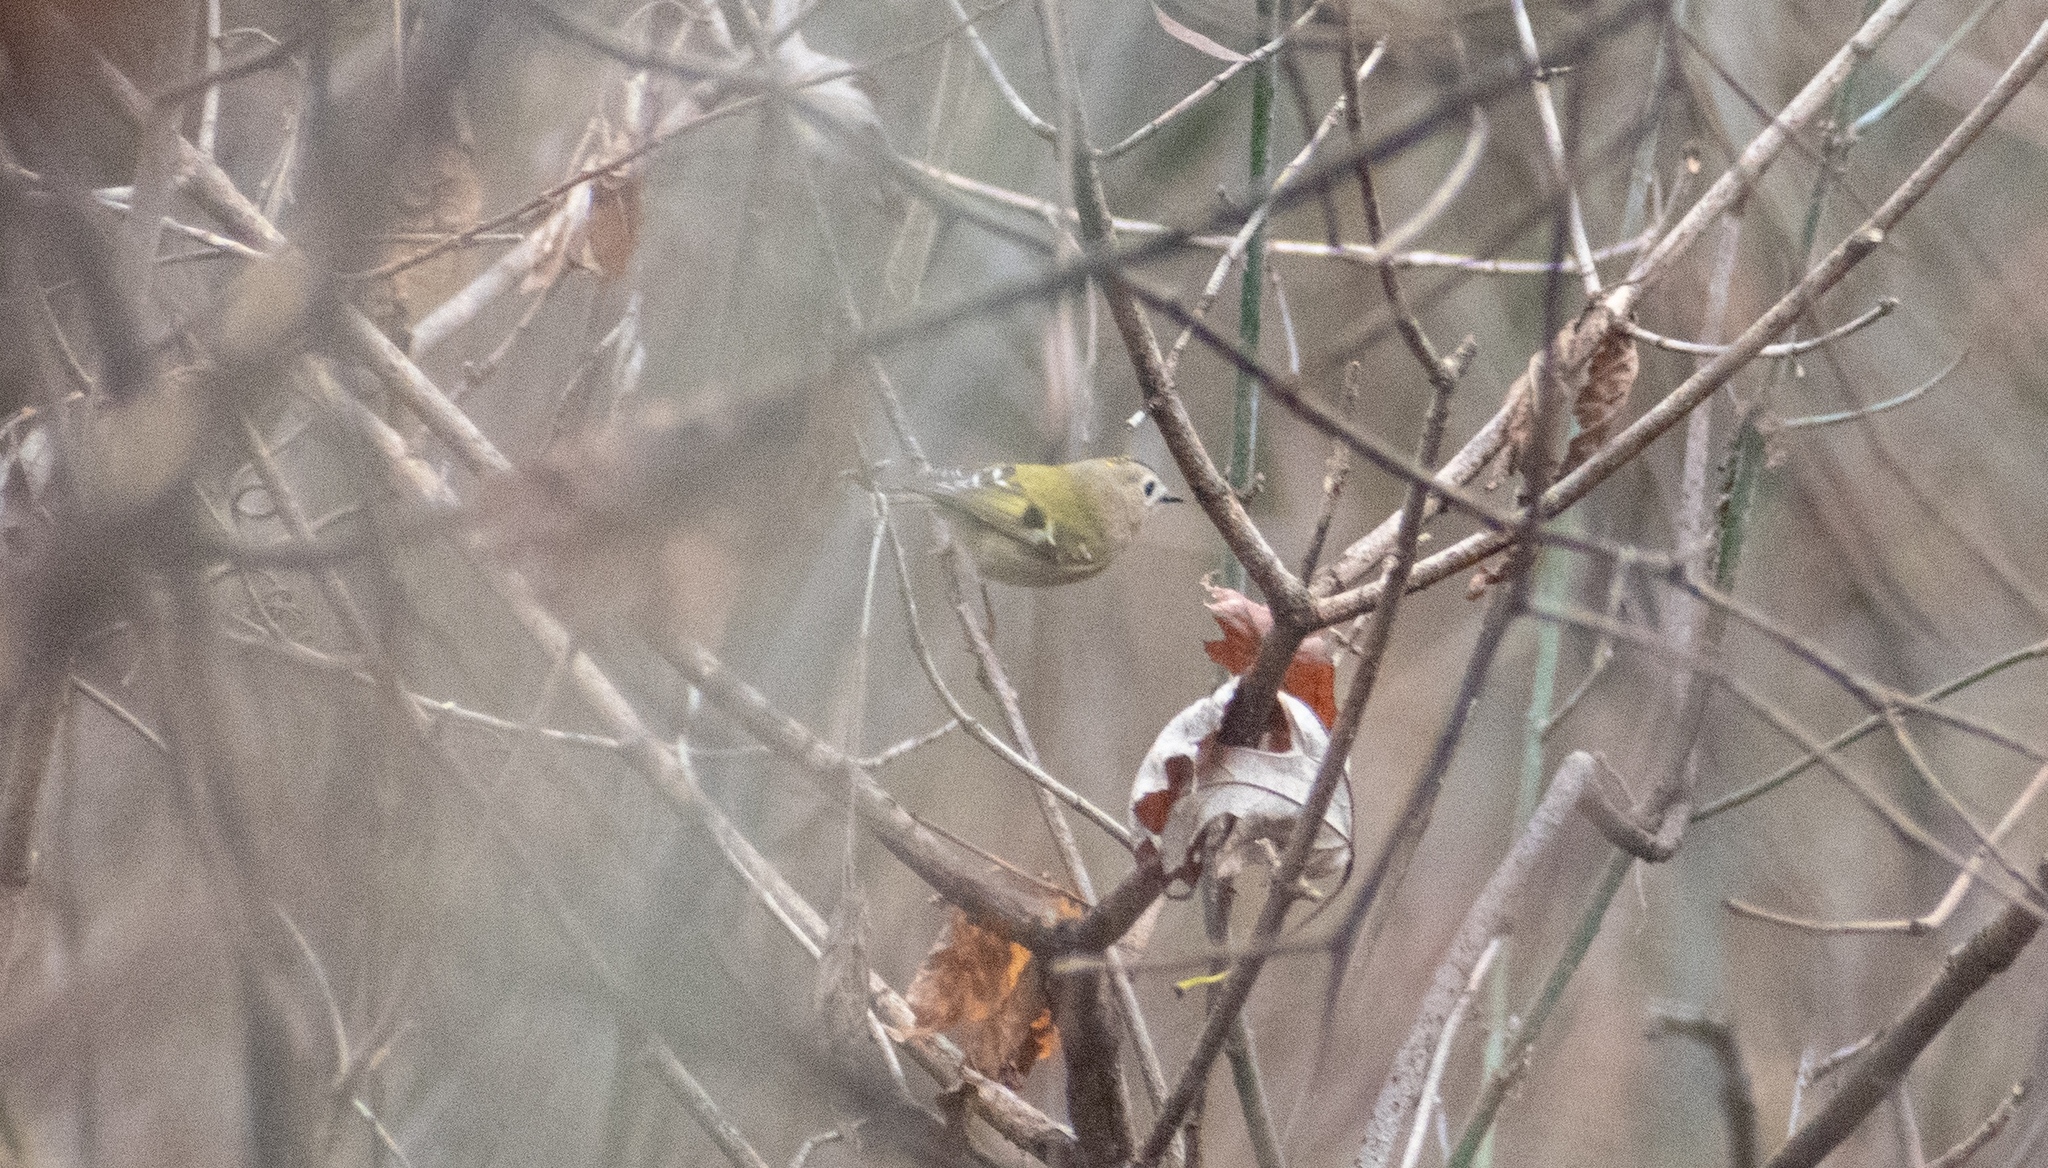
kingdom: Animalia
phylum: Chordata
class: Aves
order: Passeriformes
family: Regulidae
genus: Regulus
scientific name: Regulus regulus
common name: Goldcrest
